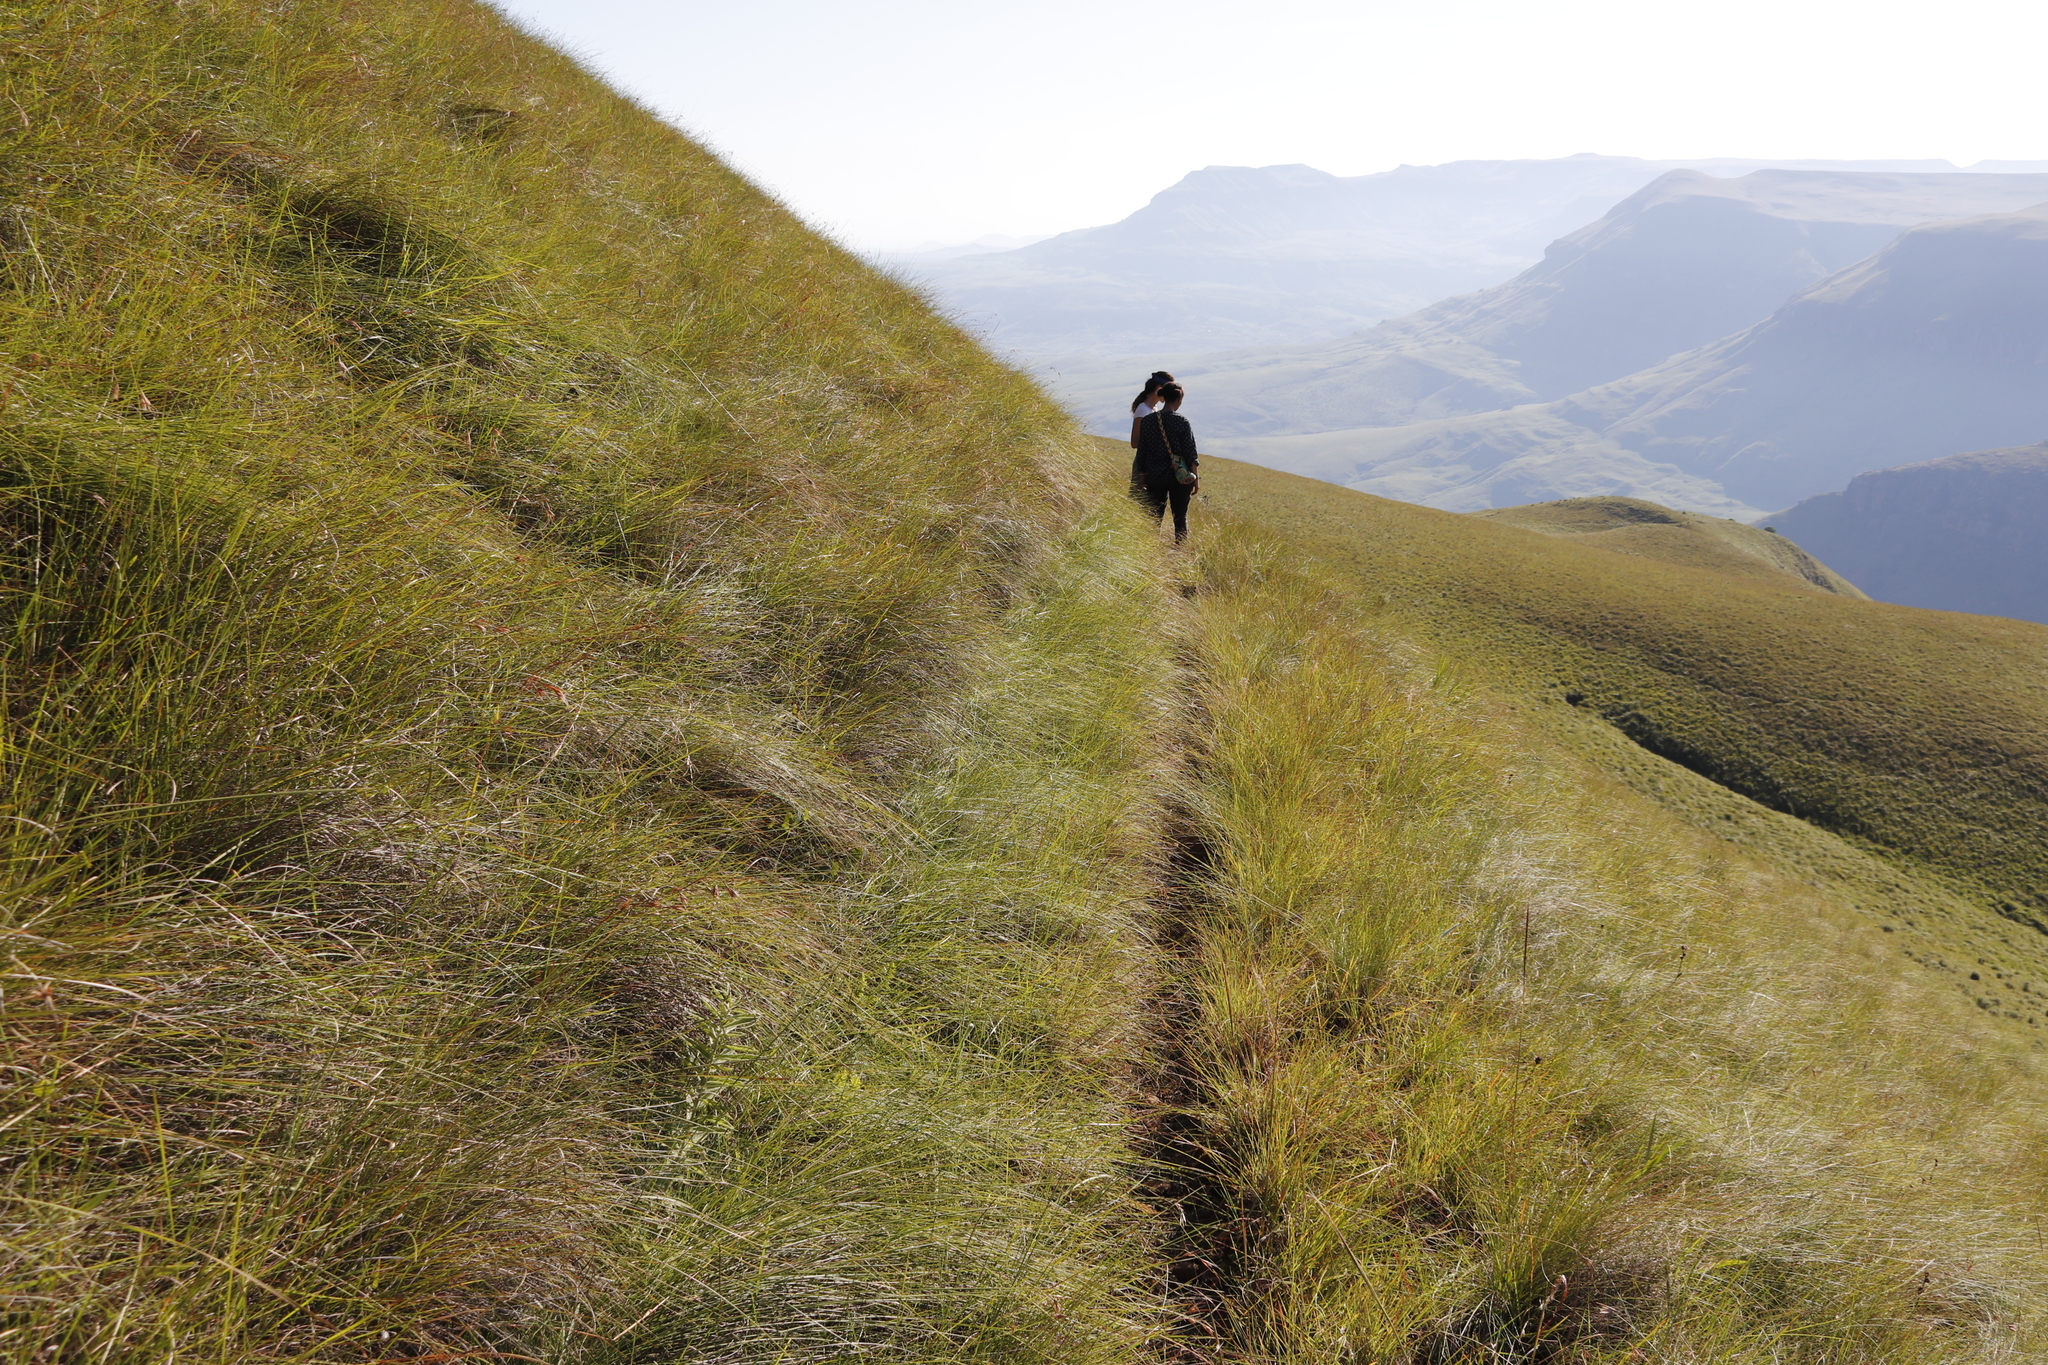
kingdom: Plantae
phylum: Tracheophyta
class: Liliopsida
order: Poales
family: Poaceae
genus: Tristachya
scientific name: Tristachya leucothrix
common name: Trident grass
